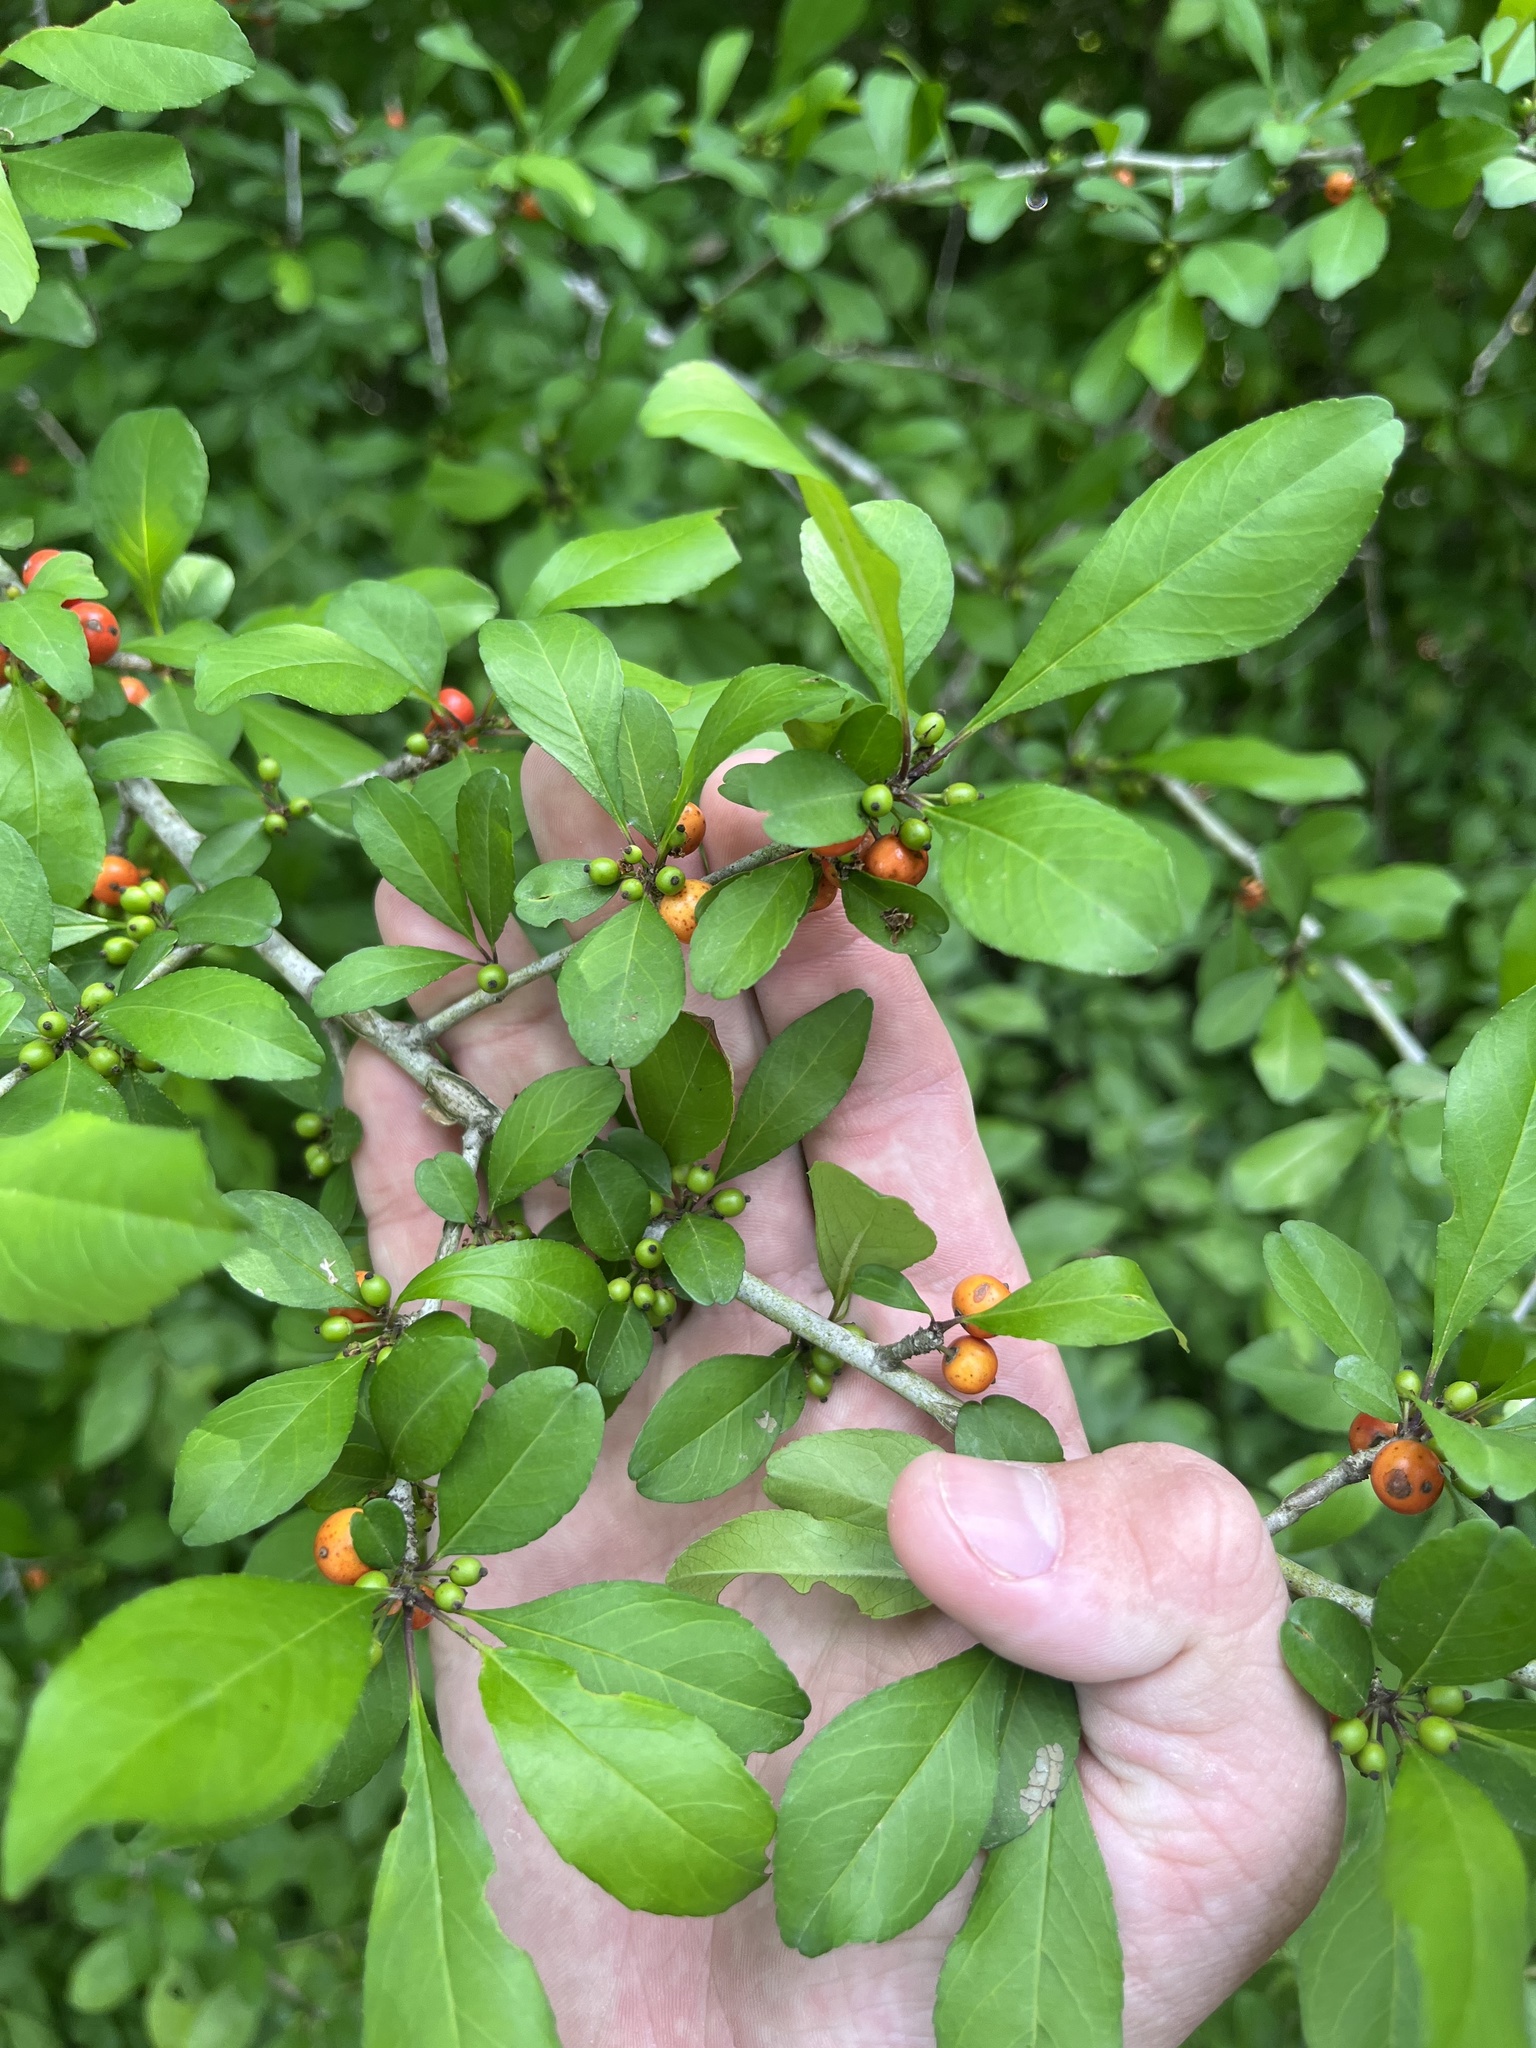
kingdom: Plantae
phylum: Tracheophyta
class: Magnoliopsida
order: Aquifoliales
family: Aquifoliaceae
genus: Ilex
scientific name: Ilex decidua
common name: Possum-haw
